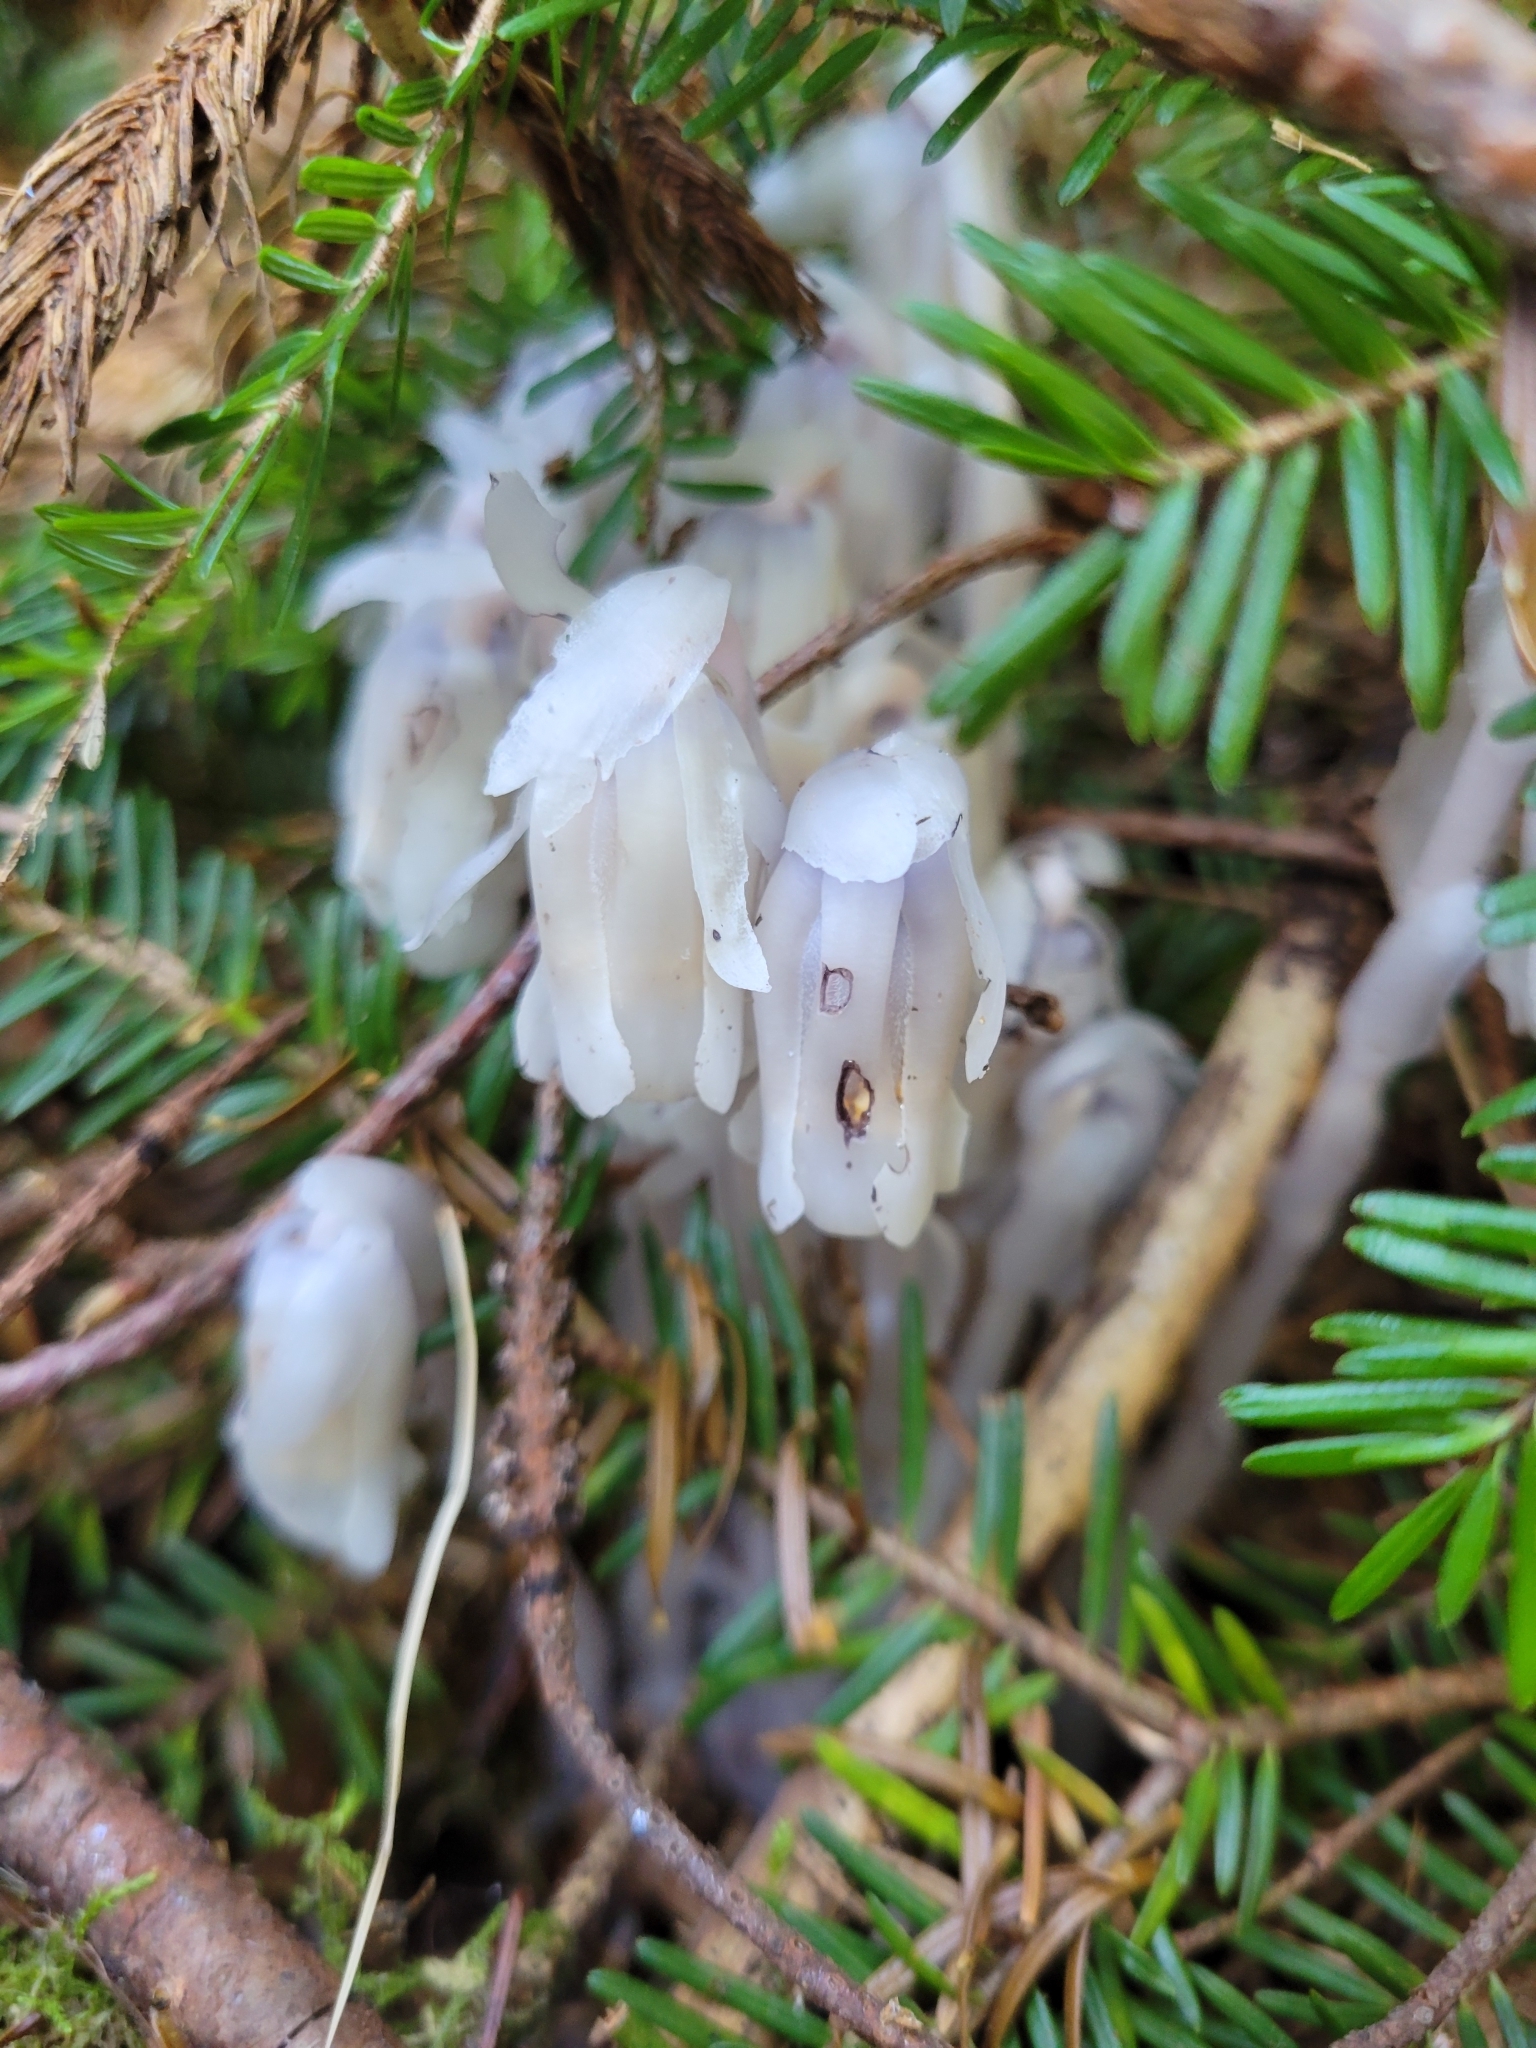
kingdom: Plantae
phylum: Tracheophyta
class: Magnoliopsida
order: Ericales
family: Ericaceae
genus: Monotropa
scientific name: Monotropa uniflora
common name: Convulsion root
